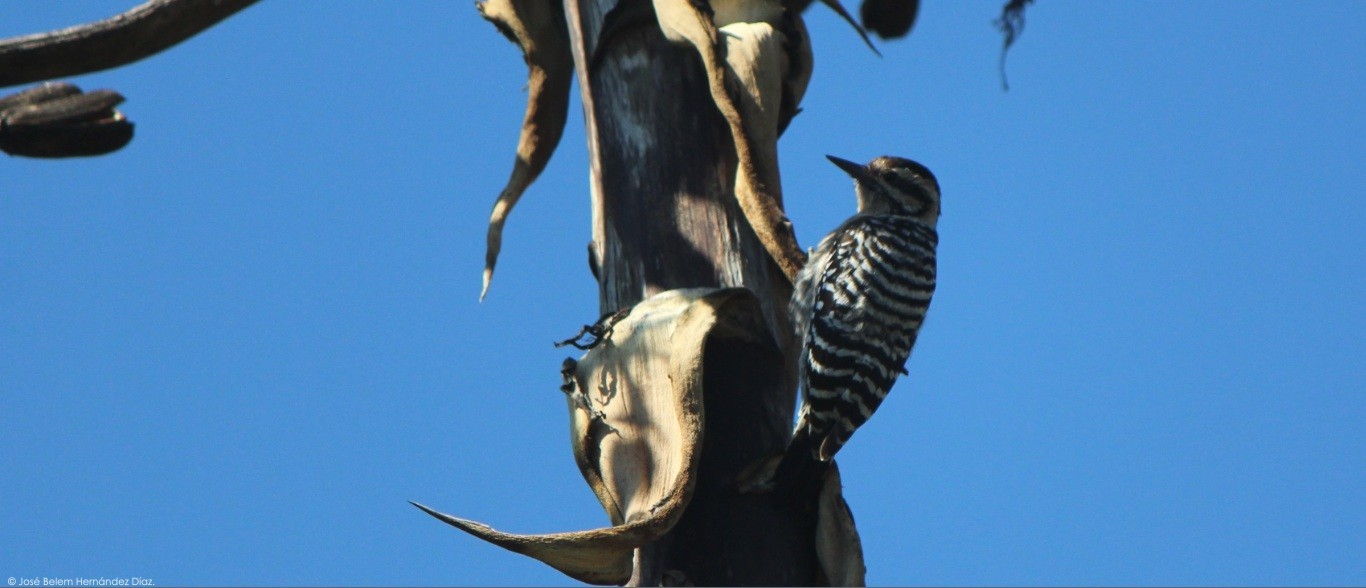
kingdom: Animalia
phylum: Chordata
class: Aves
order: Piciformes
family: Picidae
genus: Dryobates
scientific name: Dryobates scalaris
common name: Ladder-backed woodpecker
